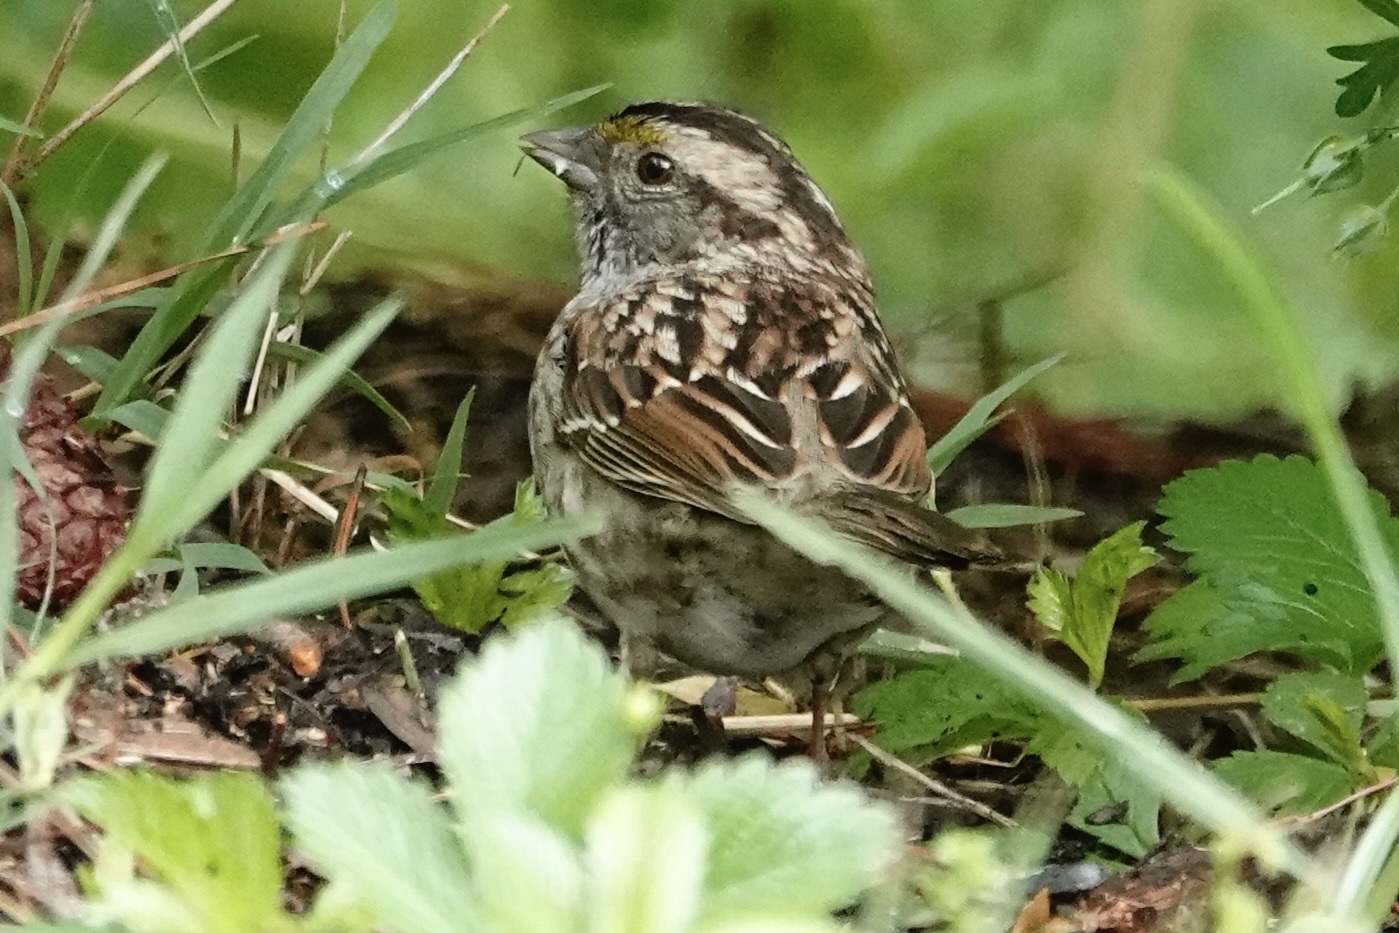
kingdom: Animalia
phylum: Chordata
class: Aves
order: Passeriformes
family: Passerellidae
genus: Zonotrichia
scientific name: Zonotrichia albicollis
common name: White-throated sparrow
